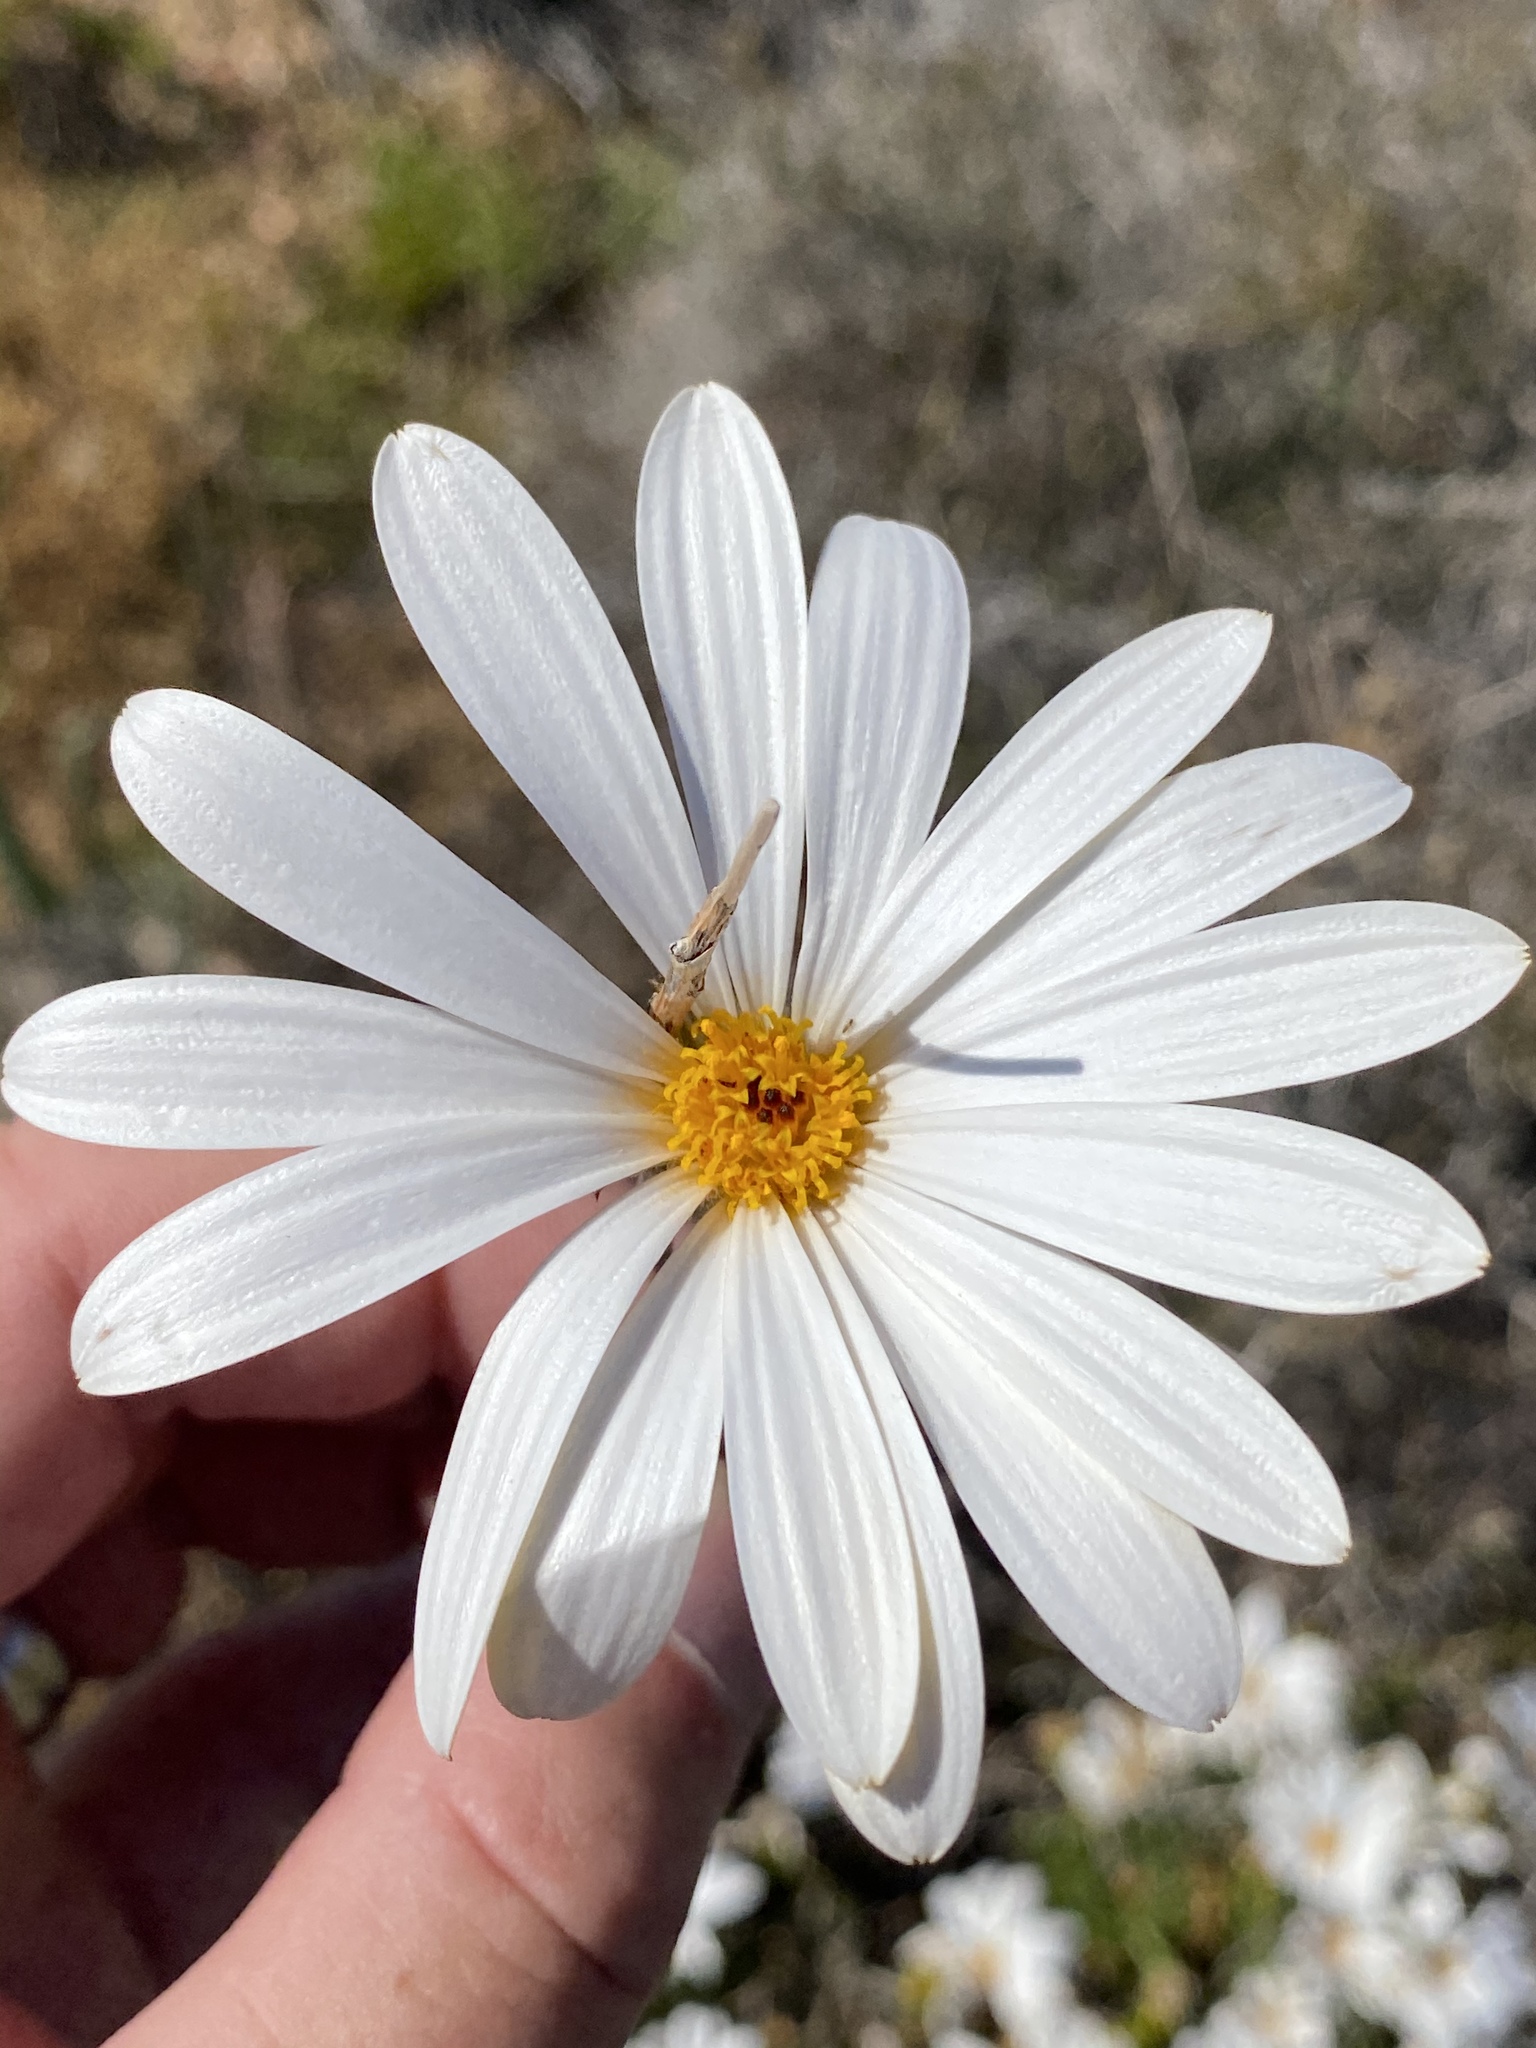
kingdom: Plantae
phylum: Tracheophyta
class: Magnoliopsida
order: Asterales
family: Asteraceae
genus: Dimorphotheca
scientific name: Dimorphotheca cuneata
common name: Daisy
